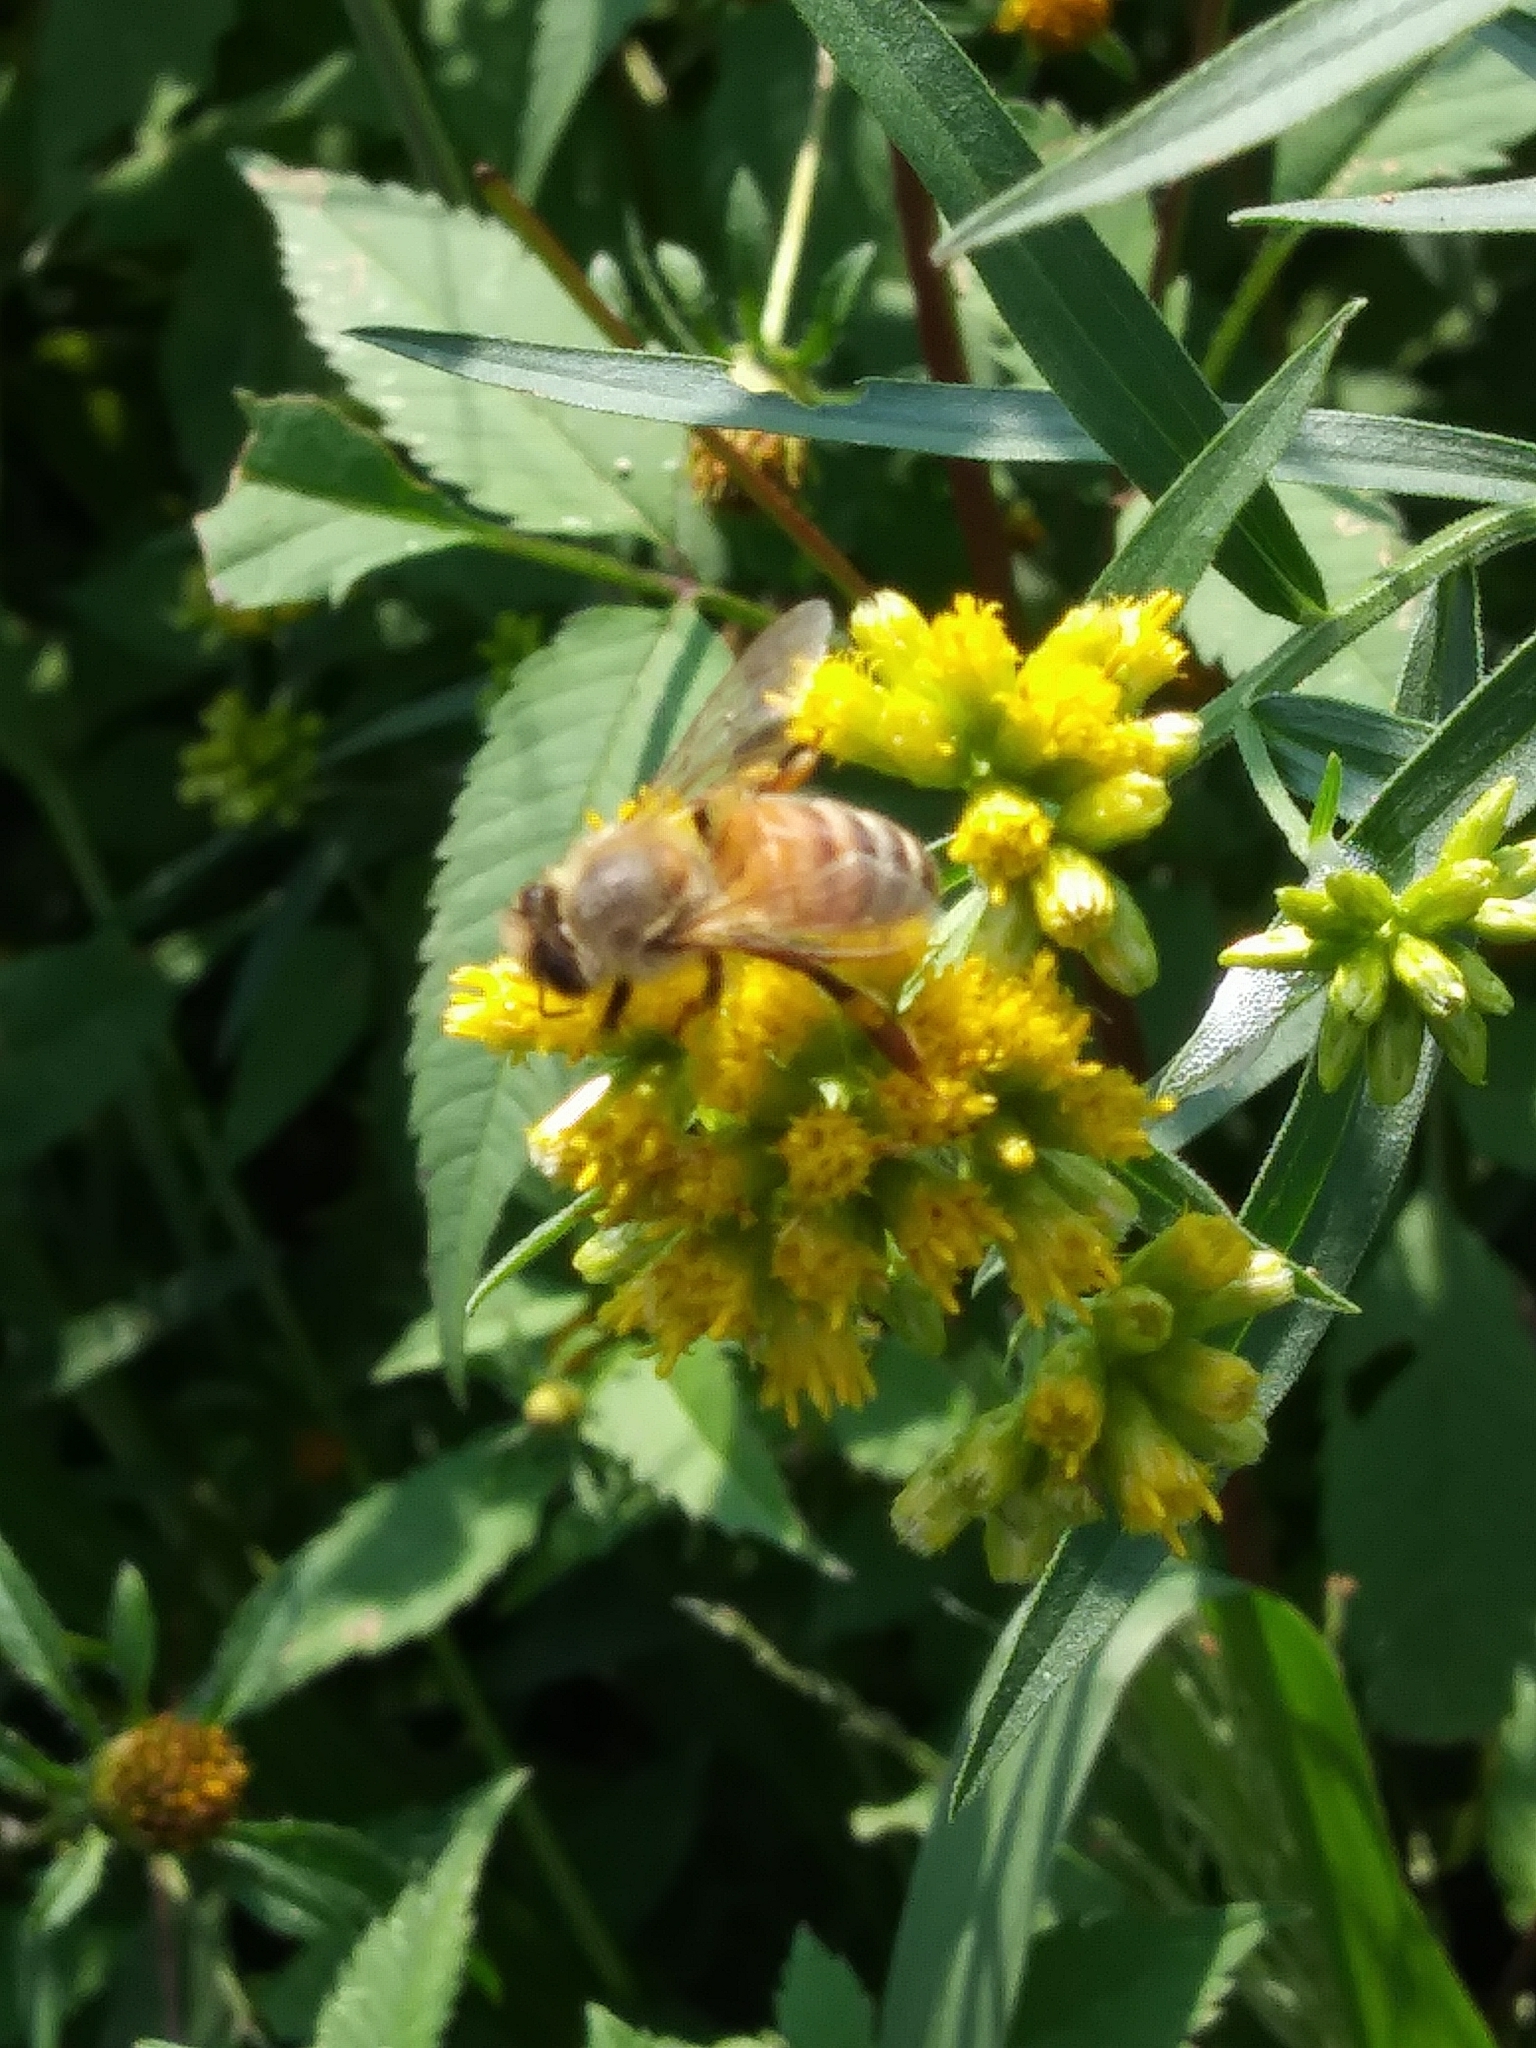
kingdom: Animalia
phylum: Arthropoda
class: Insecta
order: Hymenoptera
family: Apidae
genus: Apis
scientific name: Apis mellifera
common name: Honey bee
